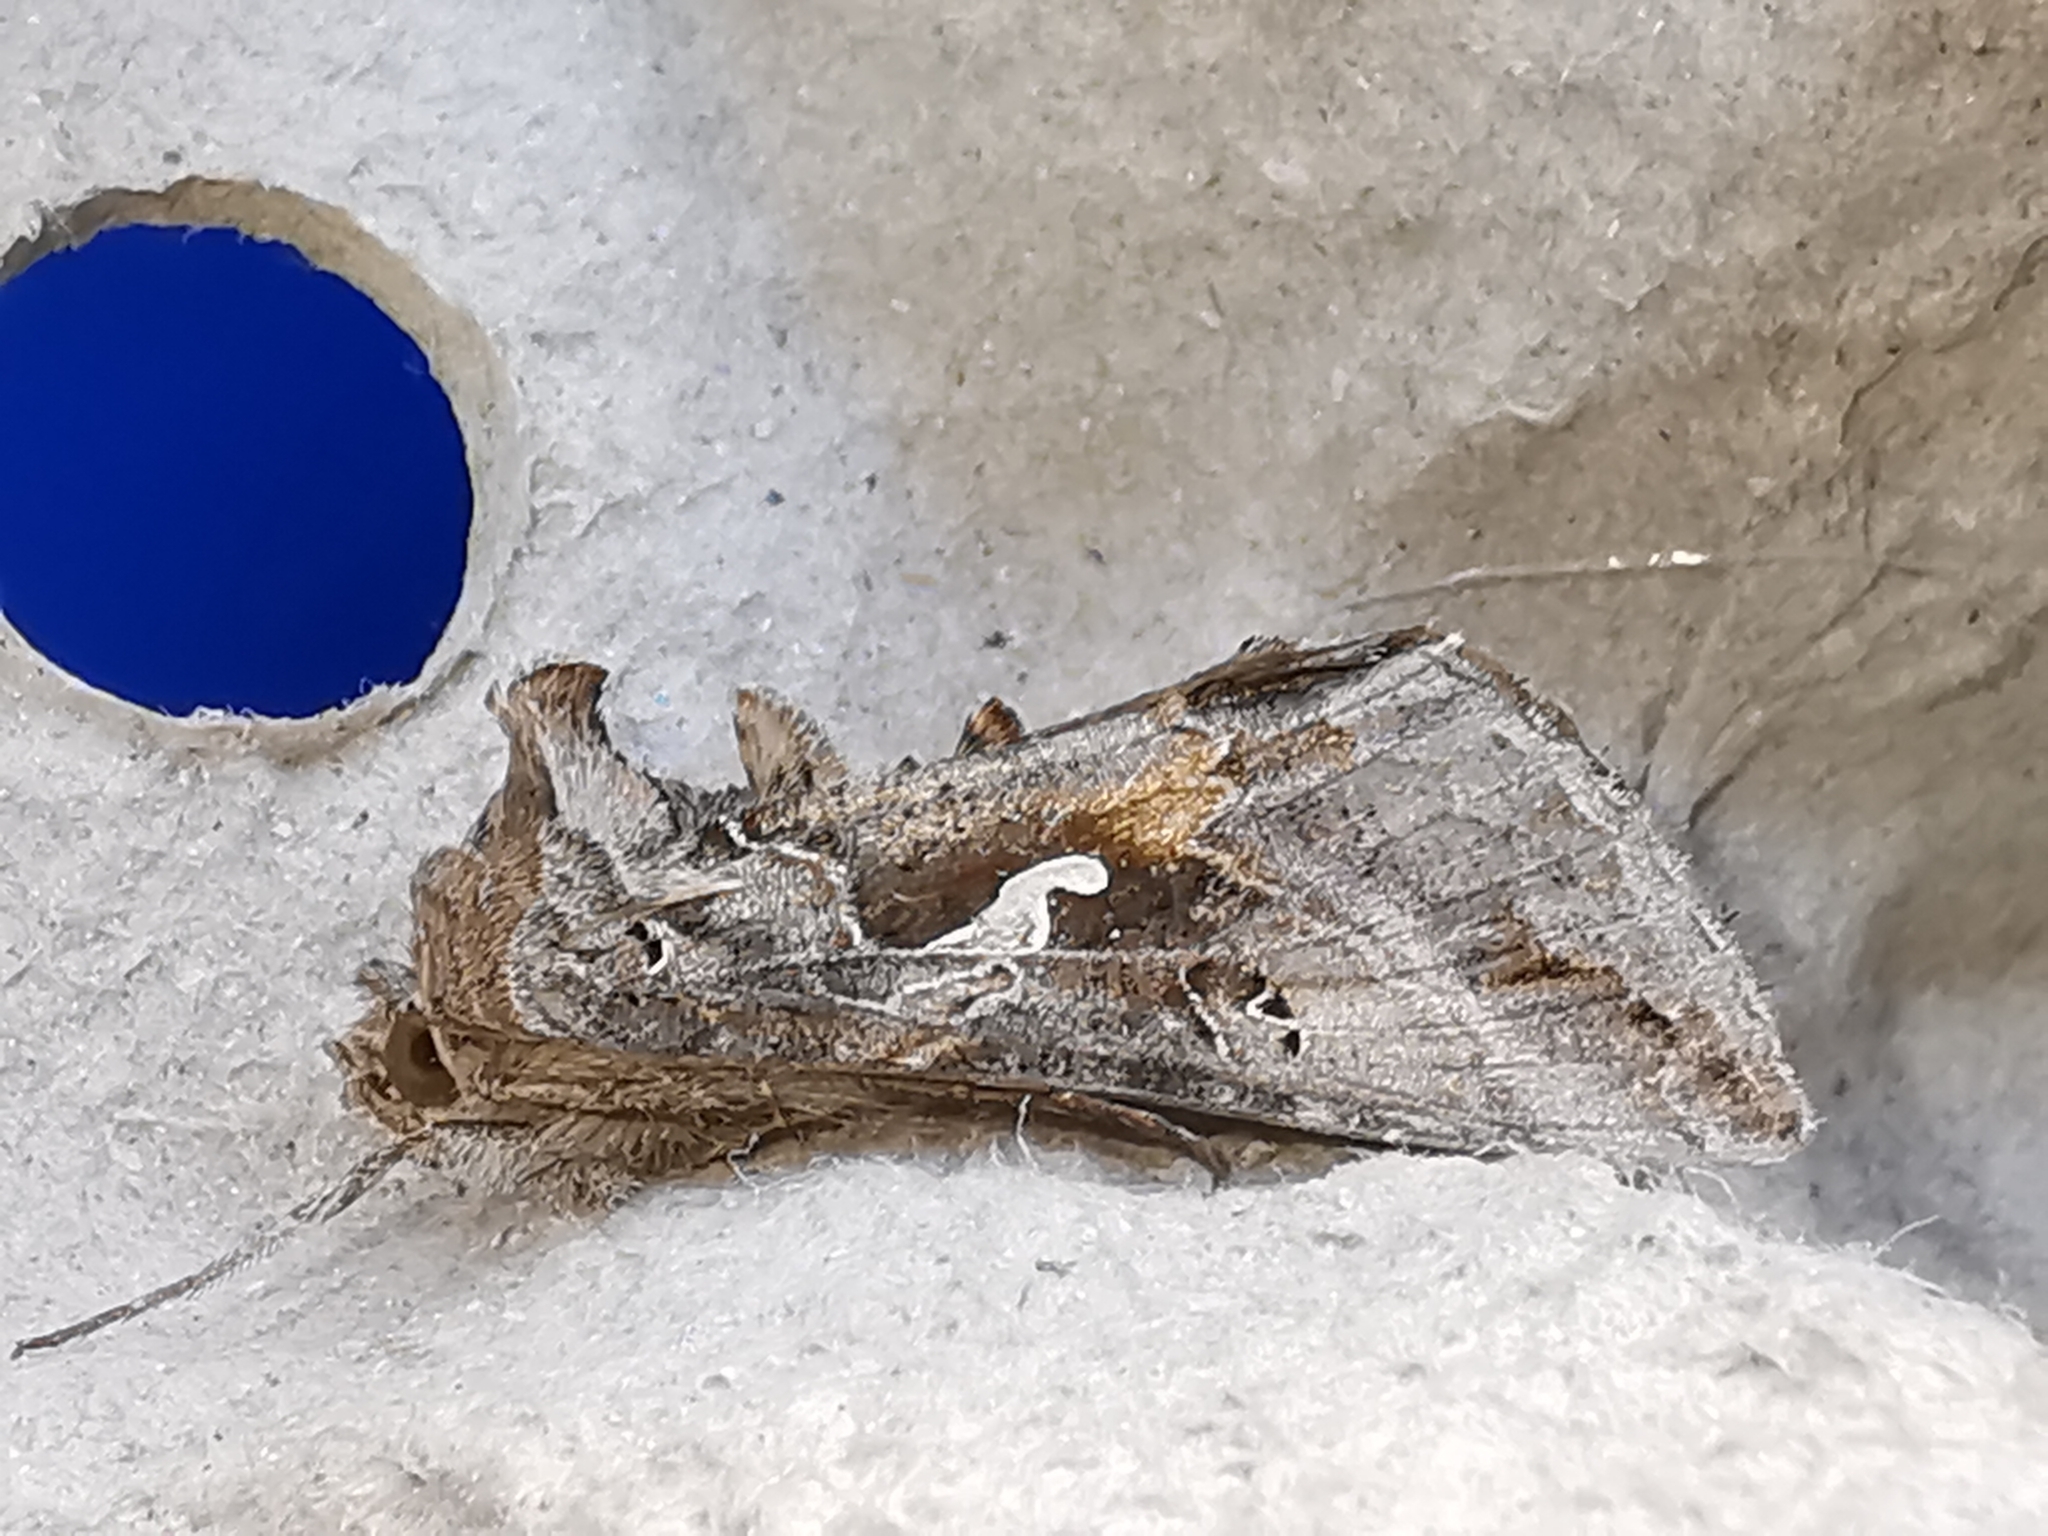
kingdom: Animalia
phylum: Arthropoda
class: Insecta
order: Lepidoptera
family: Noctuidae
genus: Autographa
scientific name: Autographa gamma
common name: Silver y
